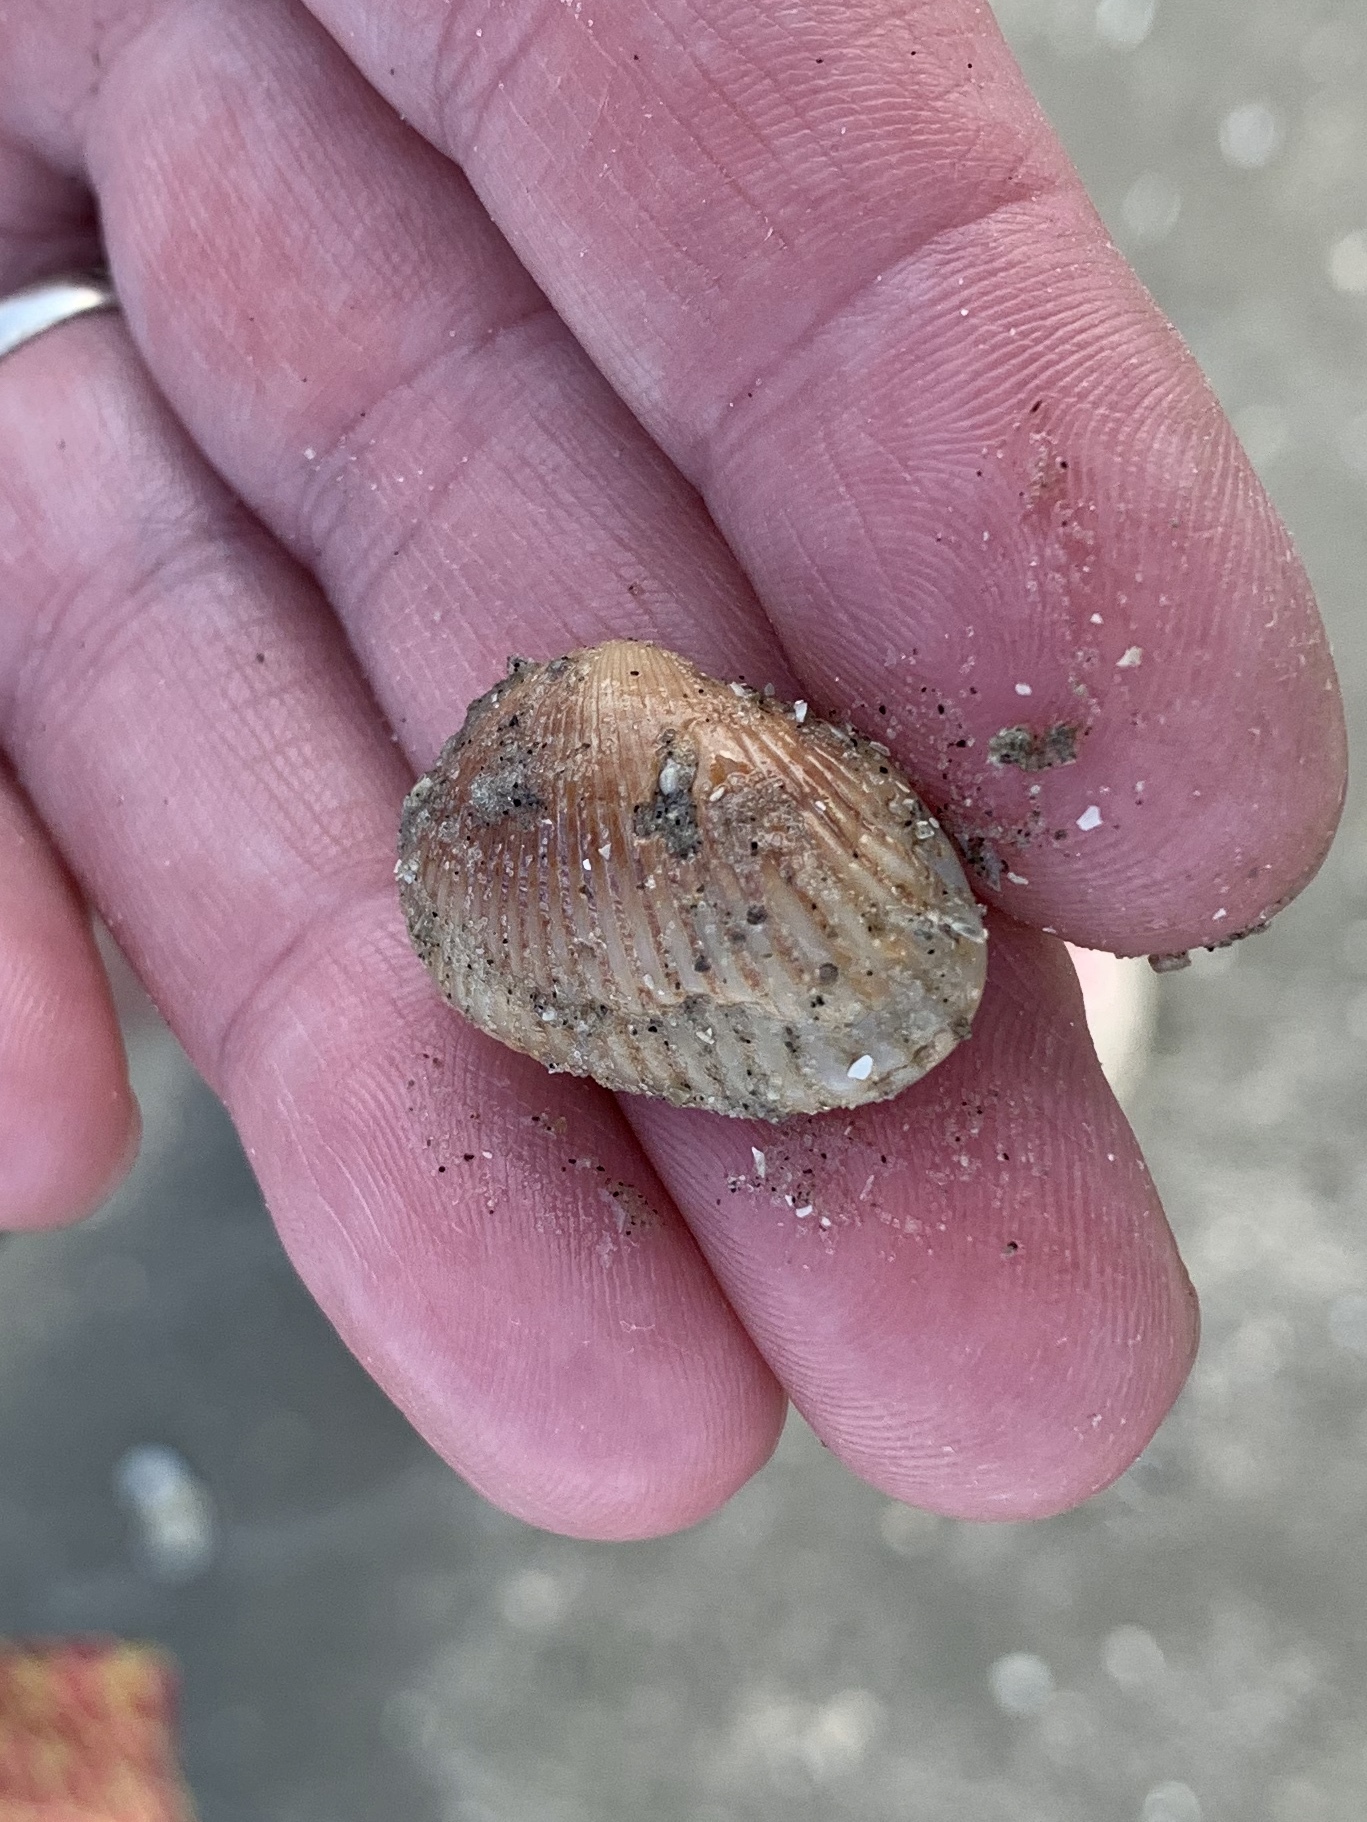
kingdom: Animalia
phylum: Mollusca
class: Bivalvia
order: Arcida
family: Arcidae
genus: Anadara
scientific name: Anadara transversa
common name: Transverse ark
